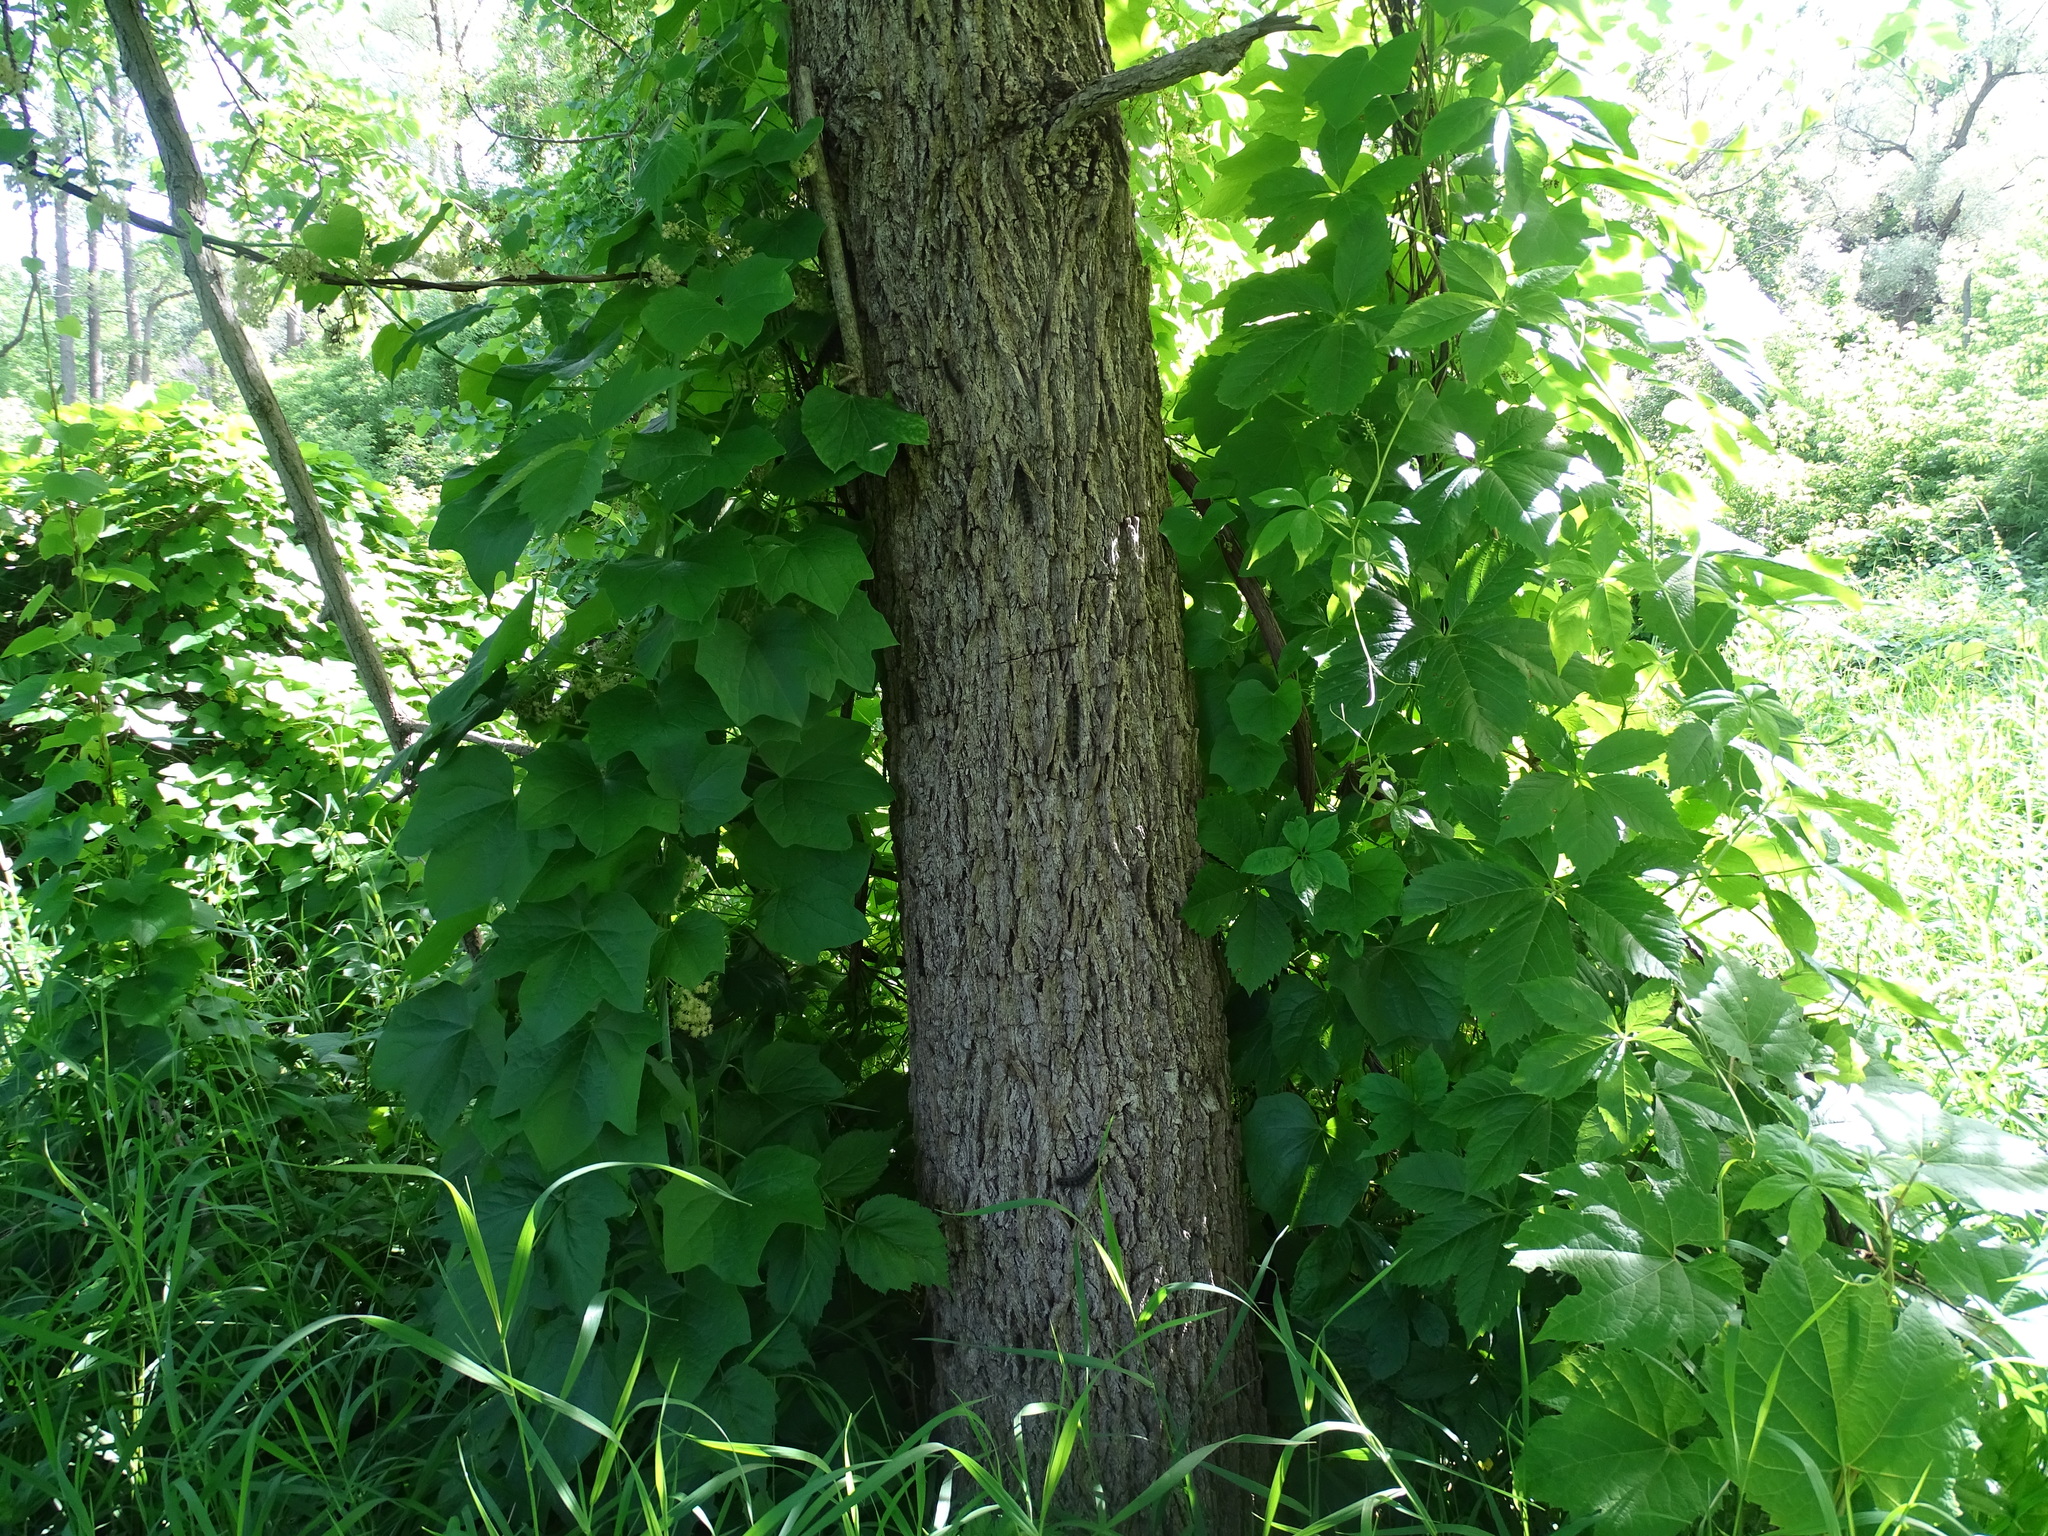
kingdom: Plantae
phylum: Tracheophyta
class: Magnoliopsida
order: Fagales
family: Juglandaceae
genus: Juglans
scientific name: Juglans nigra
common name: Black walnut
